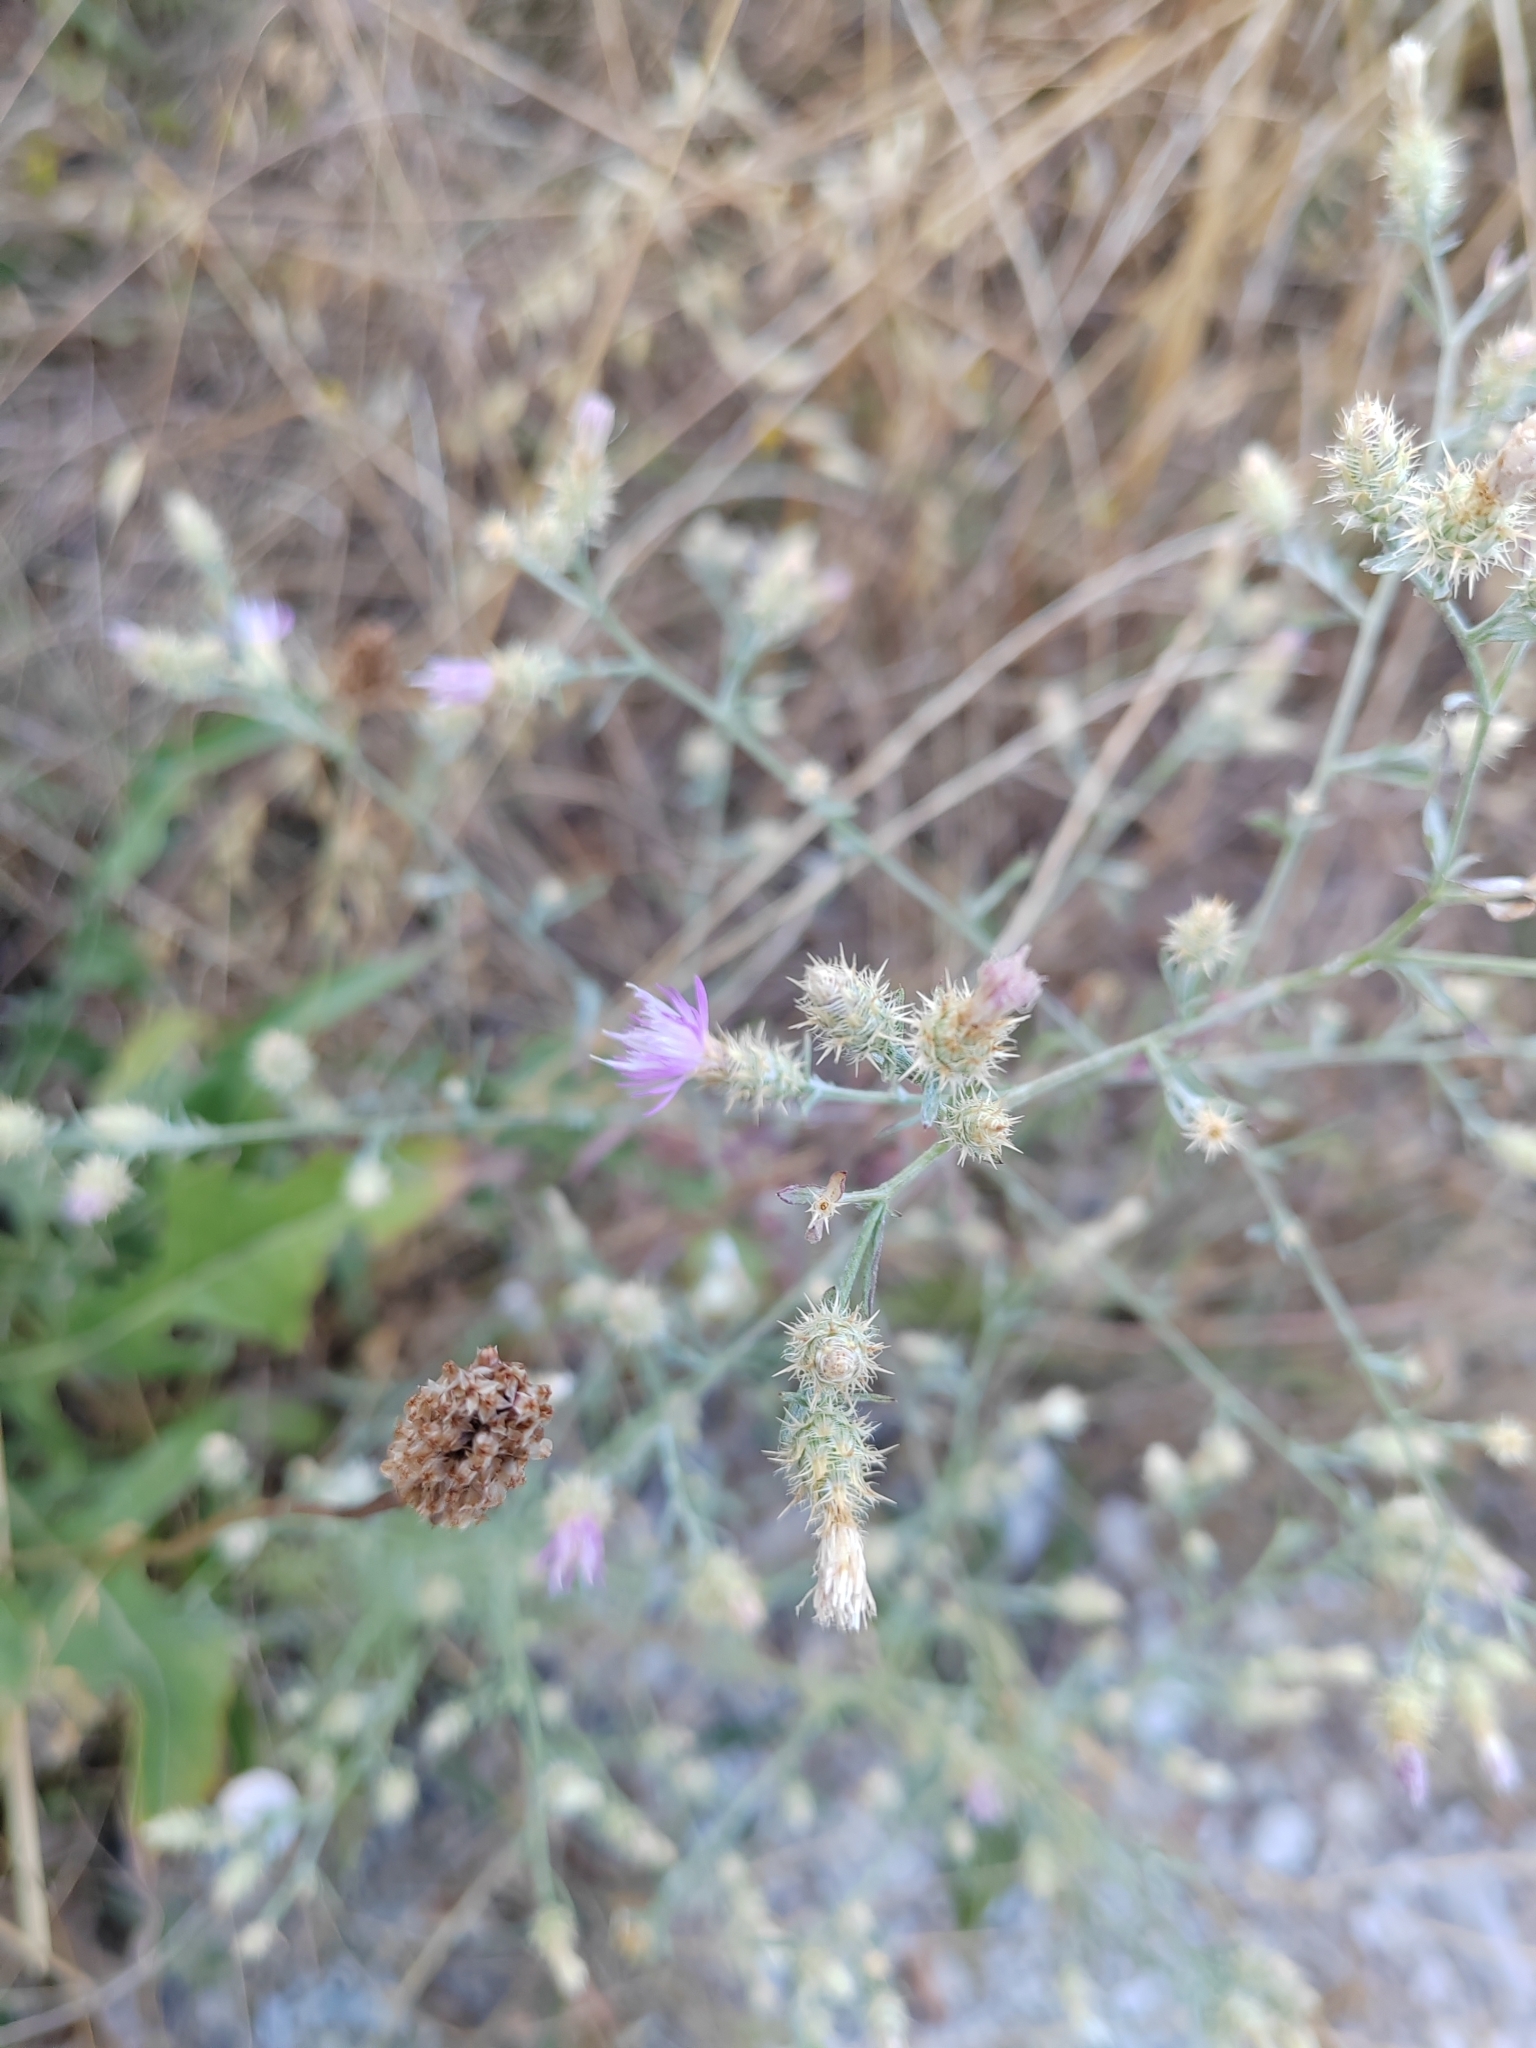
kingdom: Plantae
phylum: Tracheophyta
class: Magnoliopsida
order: Asterales
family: Asteraceae
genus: Centaurea
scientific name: Centaurea diffusa
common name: Diffuse knapweed
